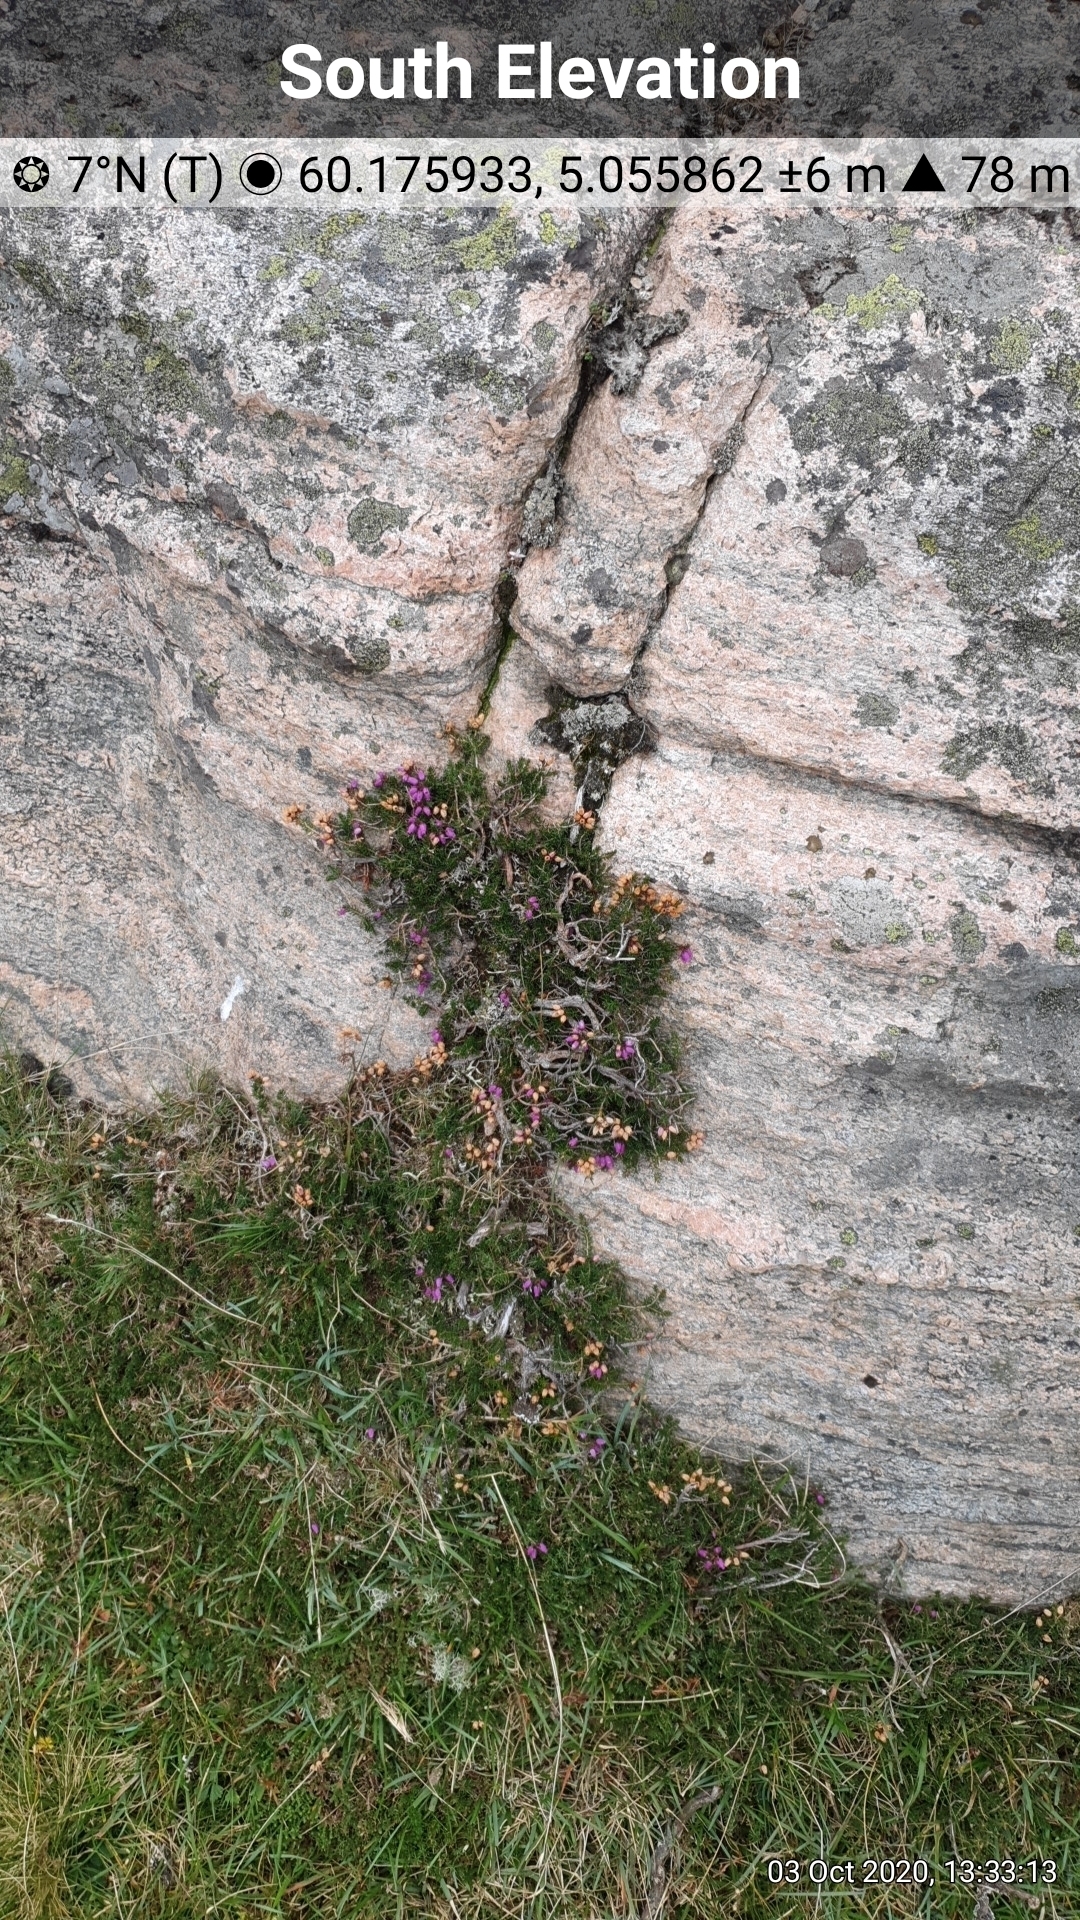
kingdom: Plantae
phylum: Tracheophyta
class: Magnoliopsida
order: Ericales
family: Ericaceae
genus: Erica
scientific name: Erica cinerea
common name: Bell heather
